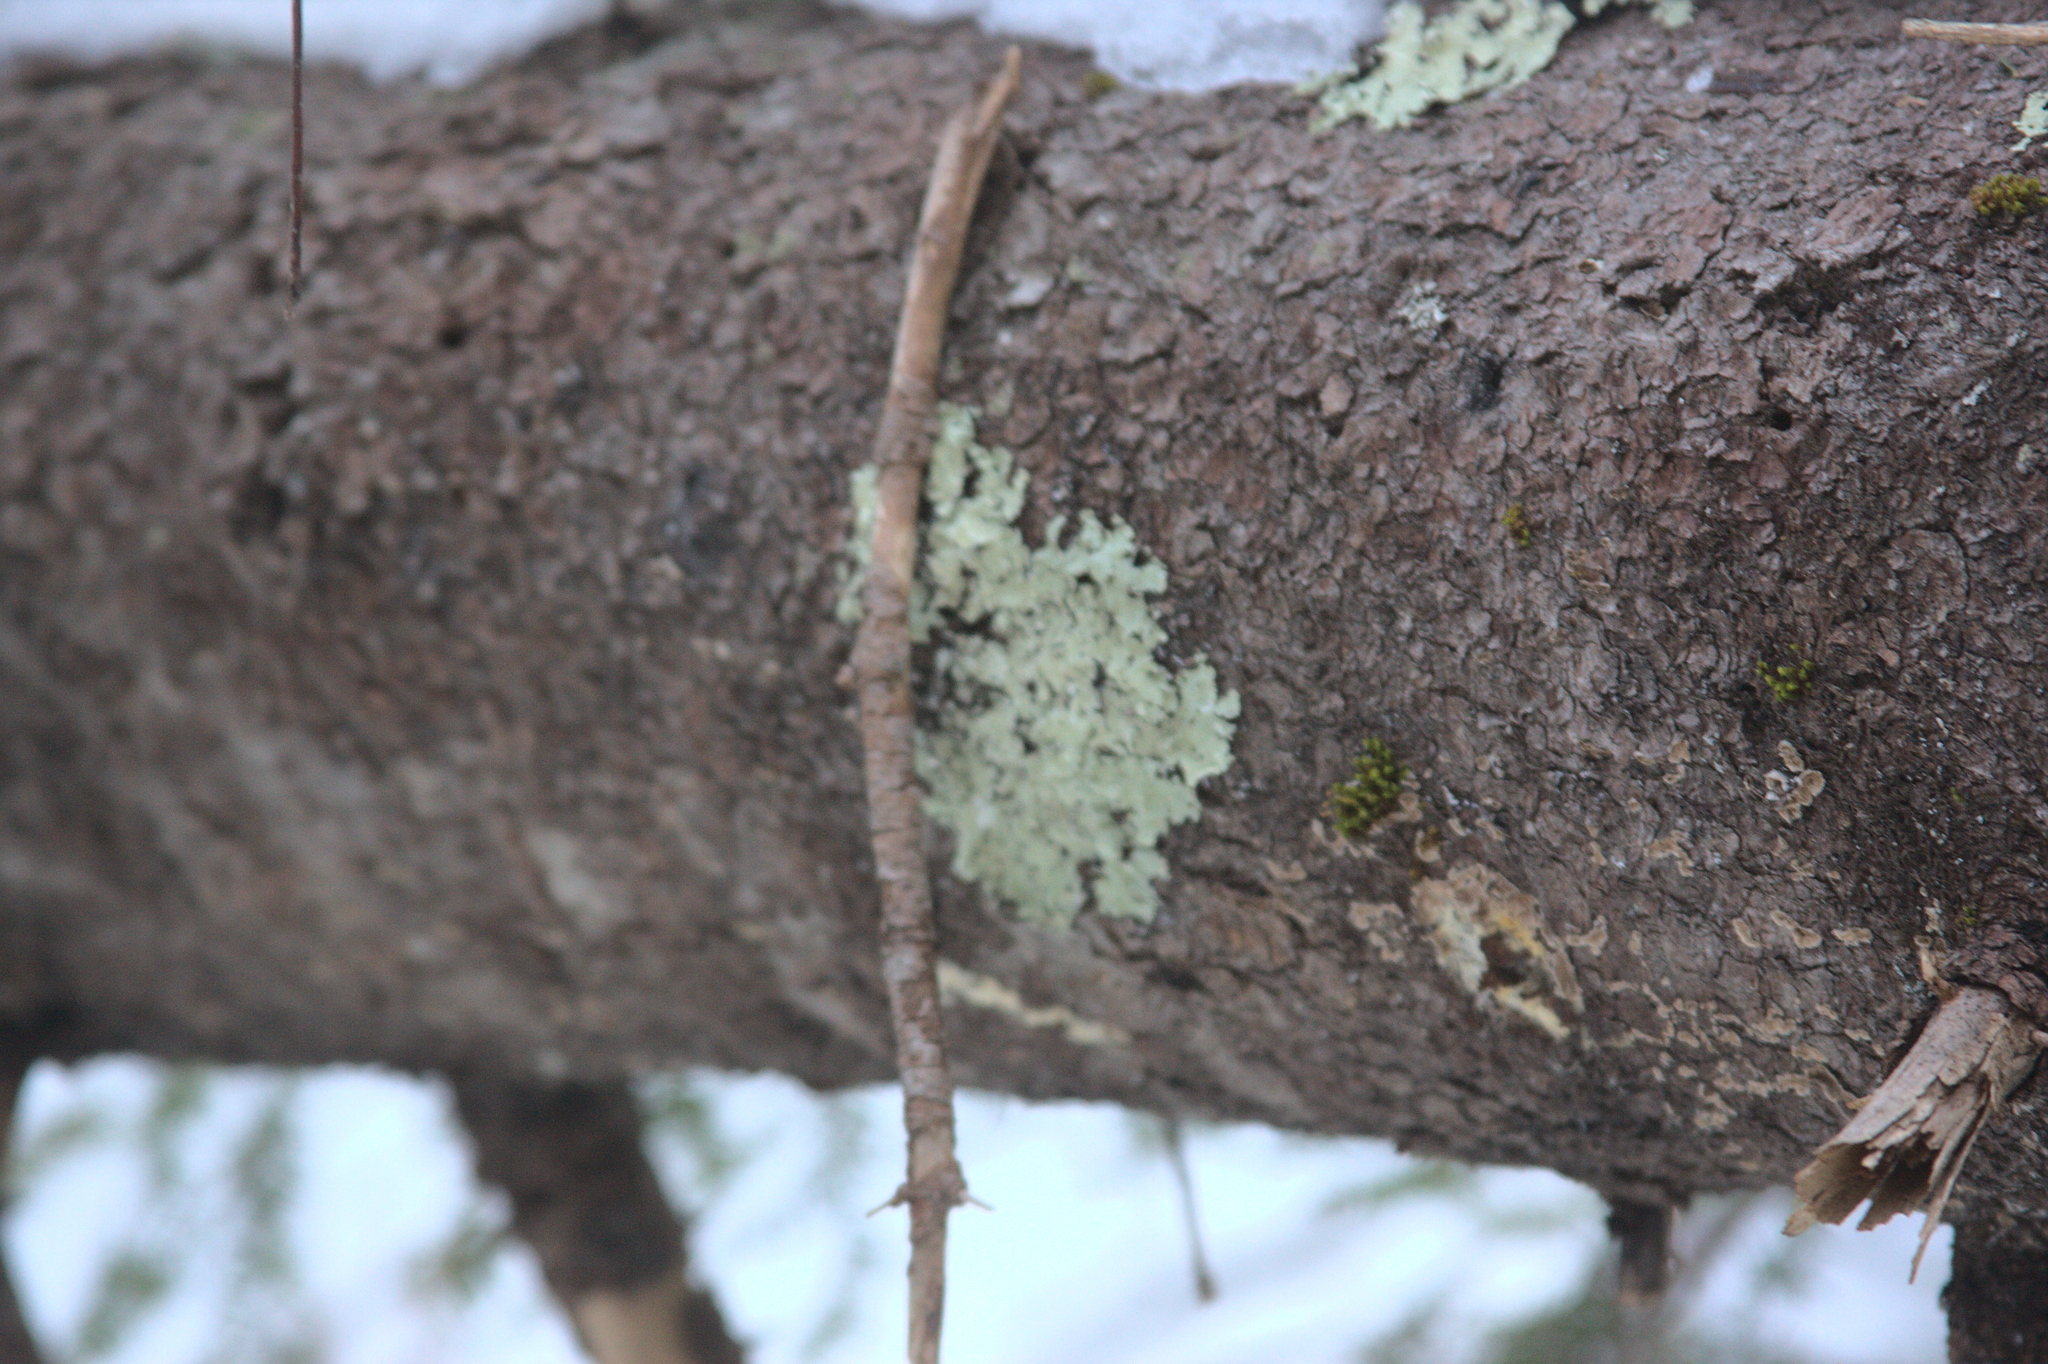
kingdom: Plantae
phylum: Bryophyta
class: Bryopsida
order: Orthotrichales
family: Orthotrichaceae
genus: Ulota
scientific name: Ulota crispa
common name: Crisped pincushion moss
